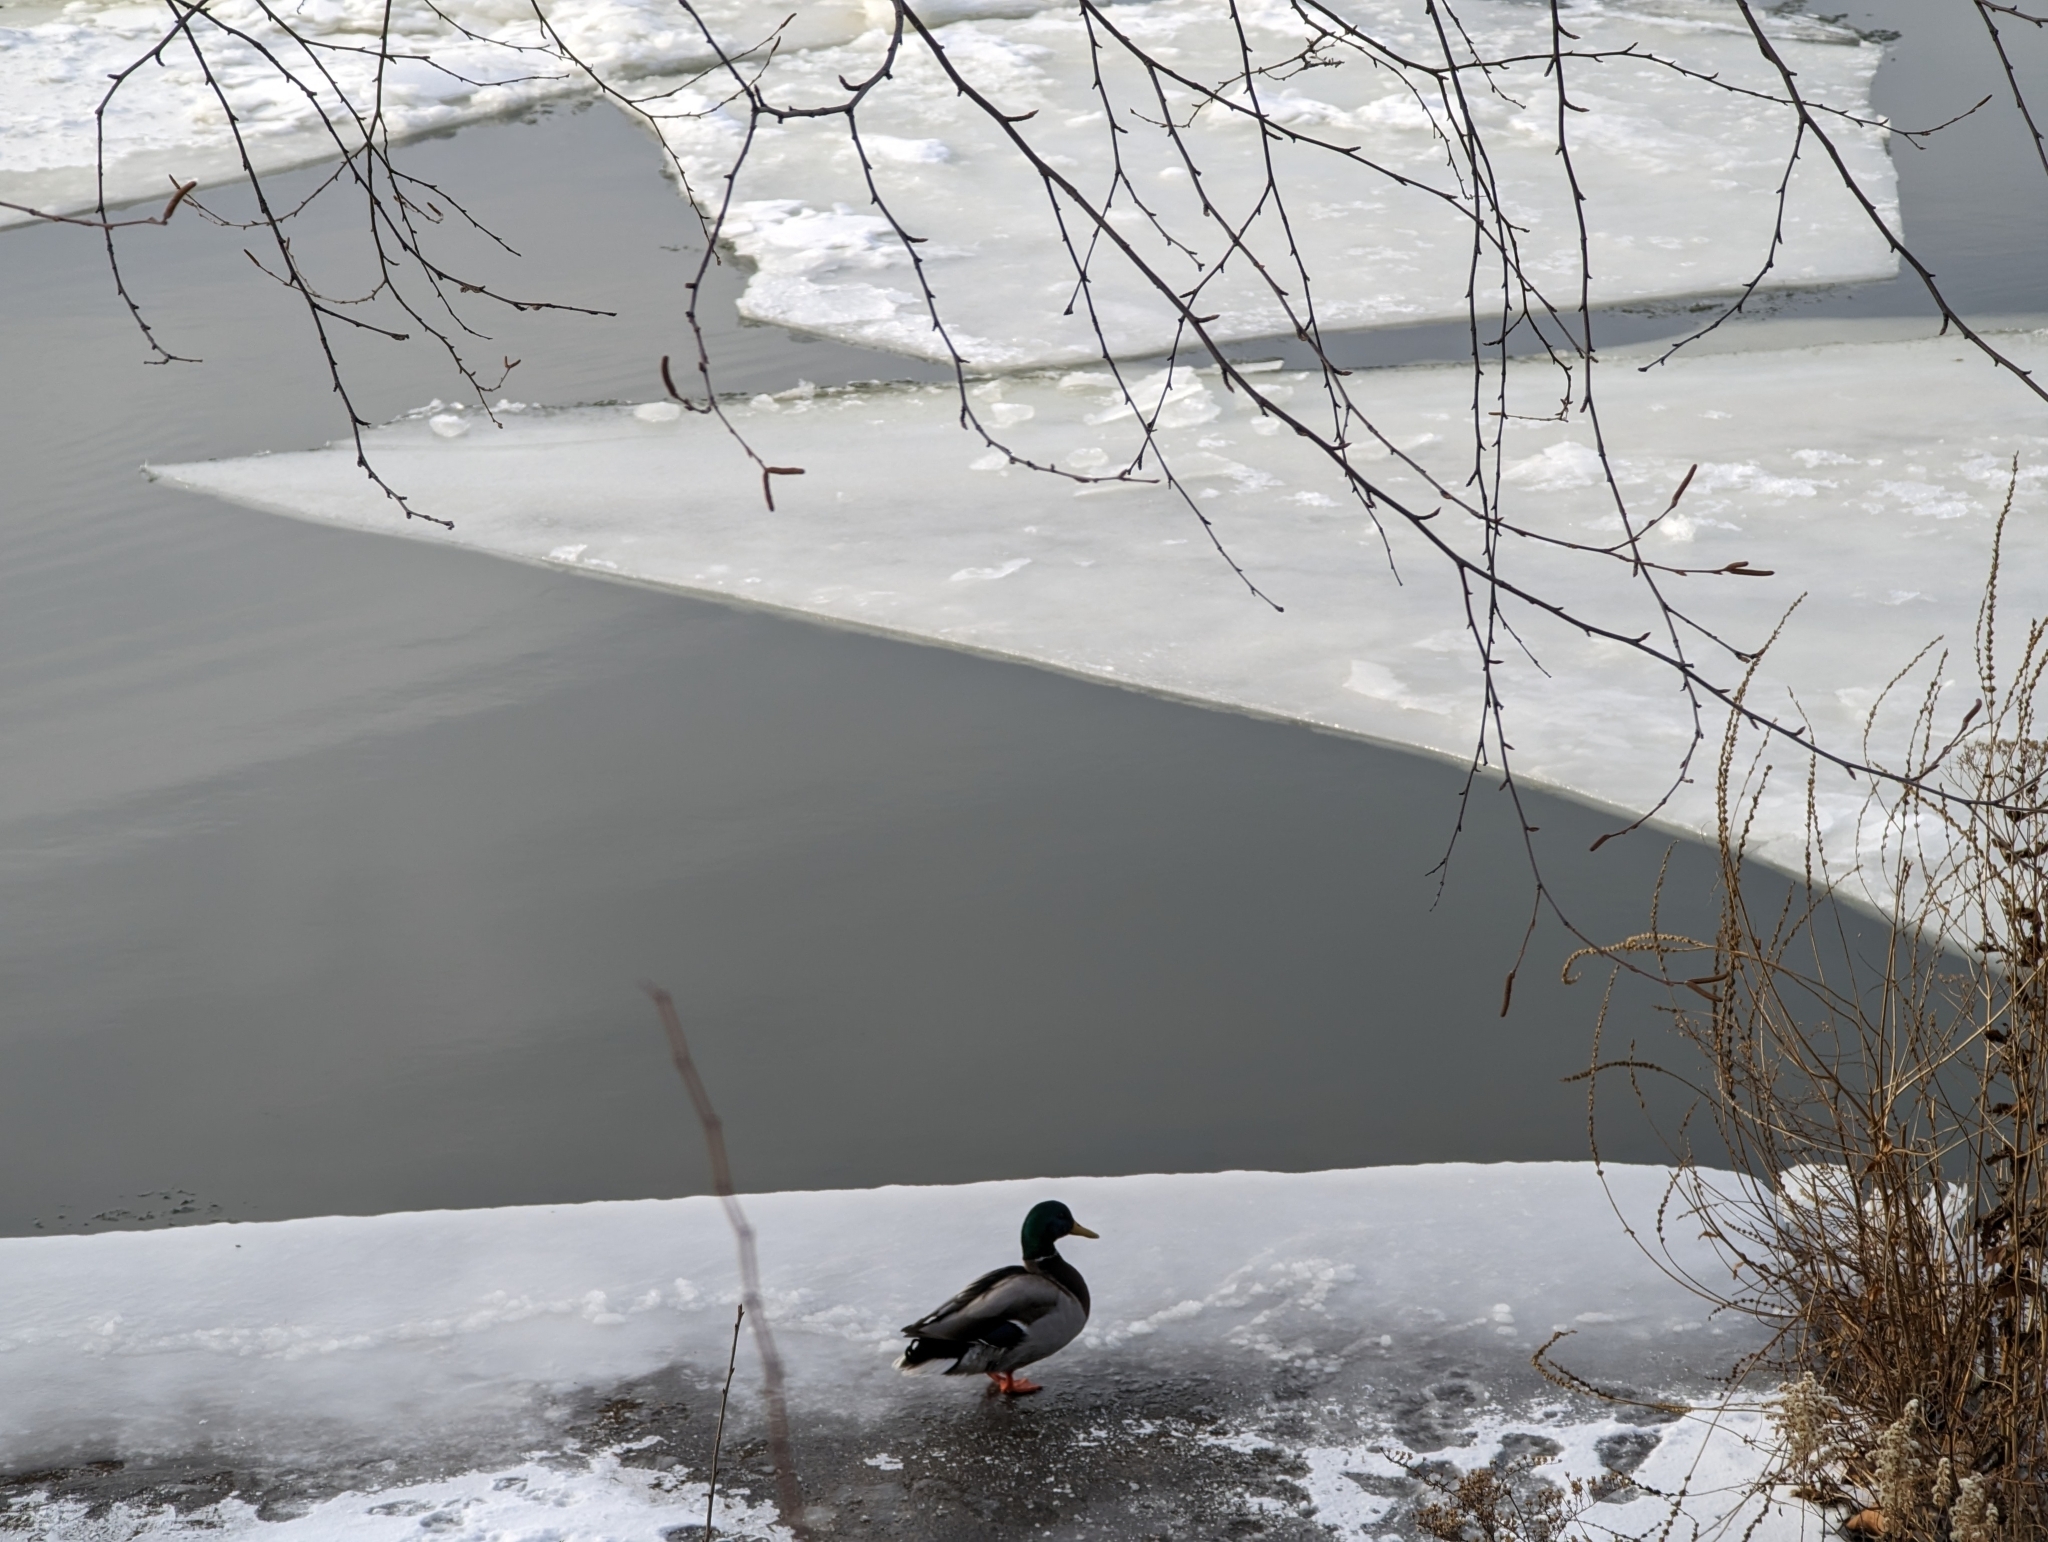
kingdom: Animalia
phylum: Chordata
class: Aves
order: Anseriformes
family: Anatidae
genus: Anas
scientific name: Anas platyrhynchos
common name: Mallard
